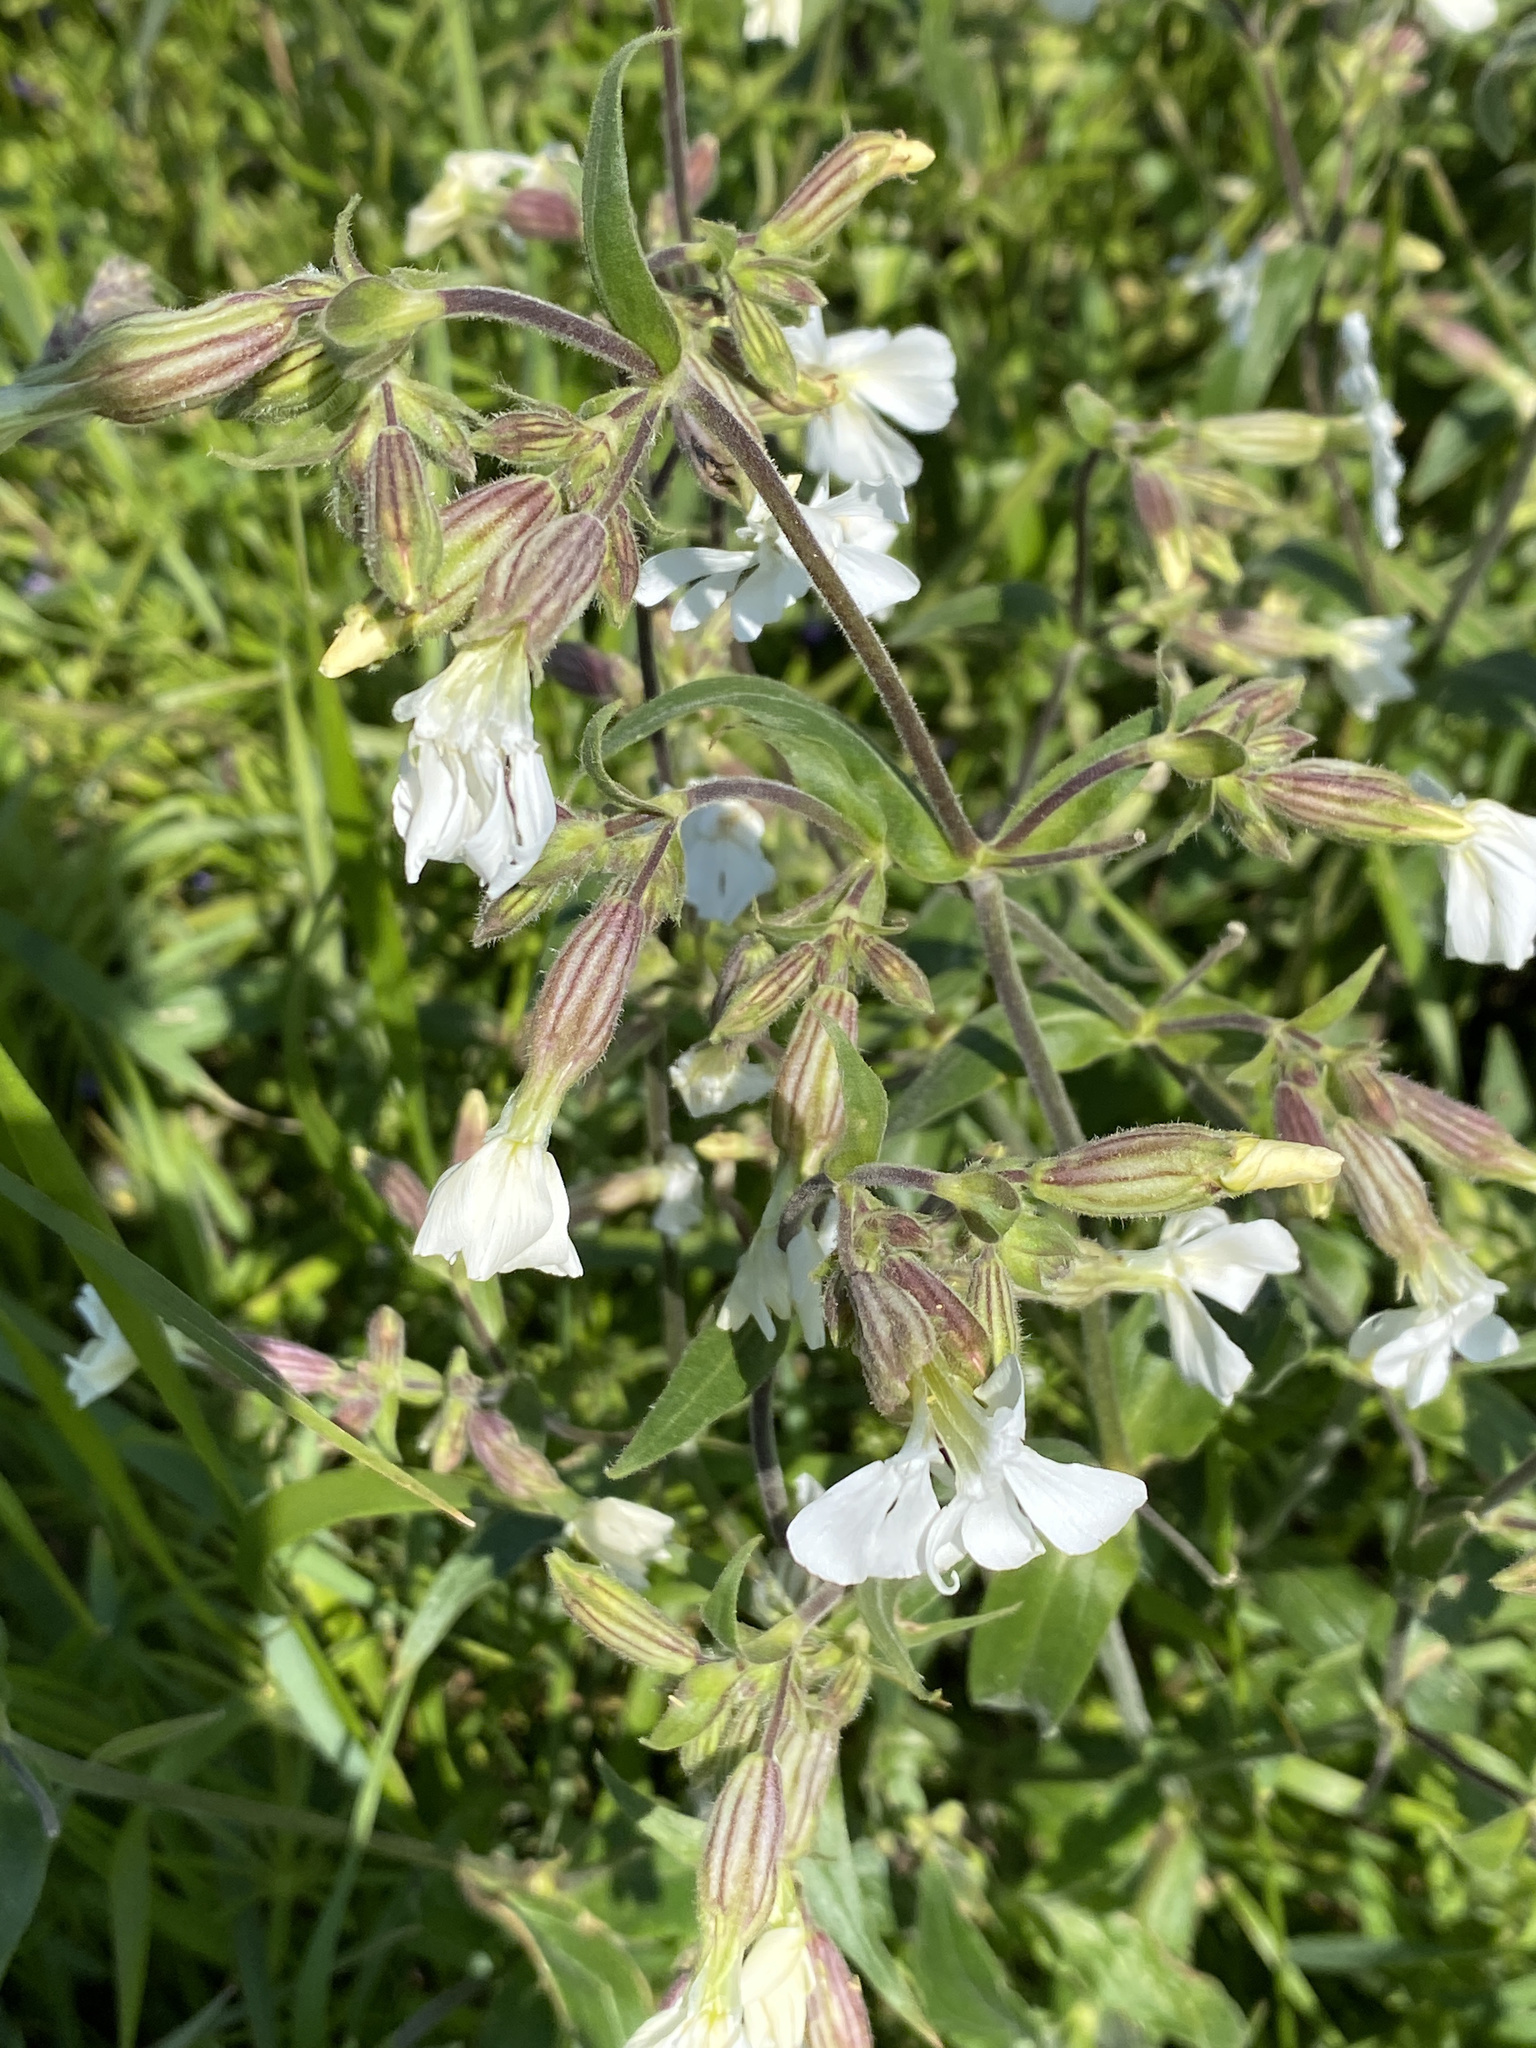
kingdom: Plantae
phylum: Tracheophyta
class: Magnoliopsida
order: Caryophyllales
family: Caryophyllaceae
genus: Silene
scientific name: Silene latifolia
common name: White campion
